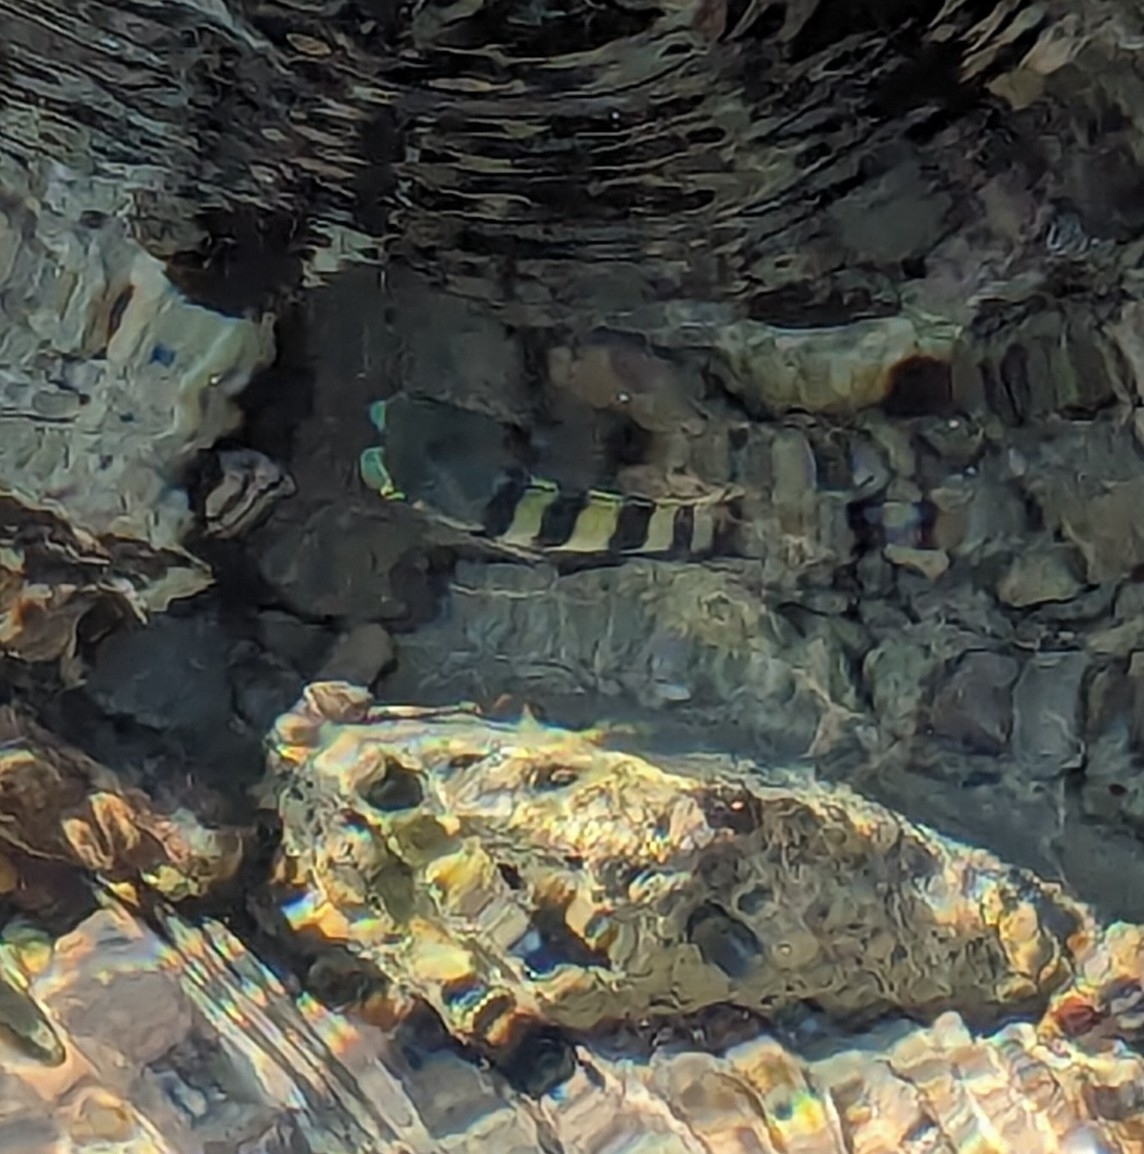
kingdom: Animalia
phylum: Chordata
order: Perciformes
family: Pomacentridae
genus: Abudefduf
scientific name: Abudefduf saxatilis
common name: Sergeant major
